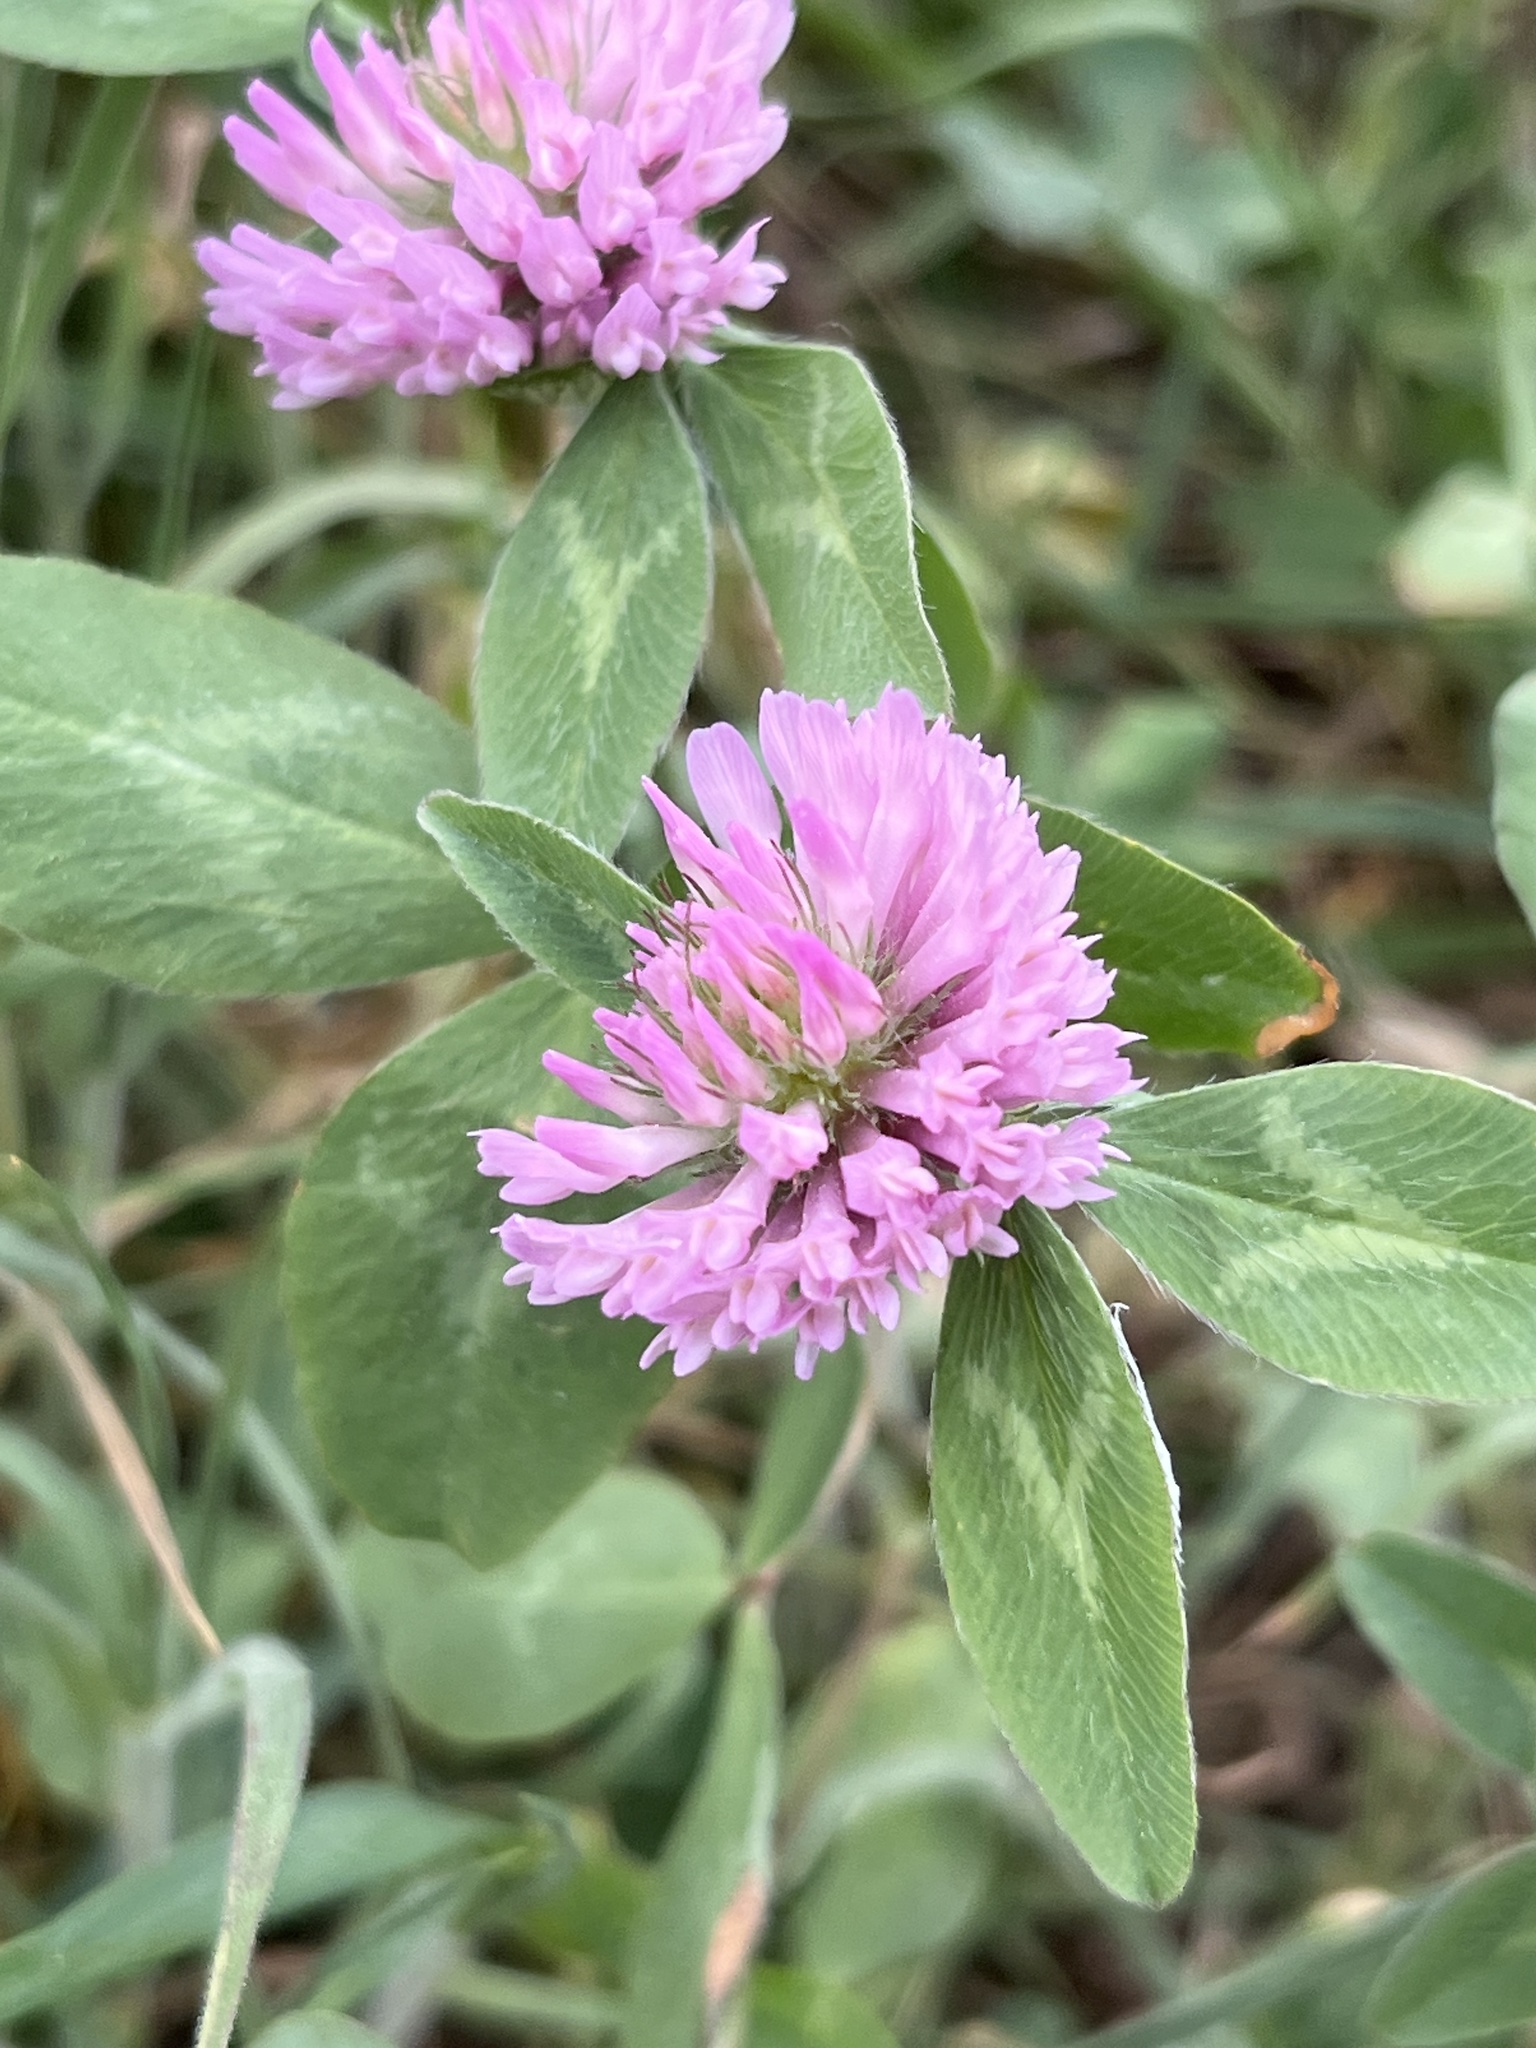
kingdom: Plantae
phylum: Tracheophyta
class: Magnoliopsida
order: Fabales
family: Fabaceae
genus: Trifolium
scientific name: Trifolium pratense
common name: Red clover
